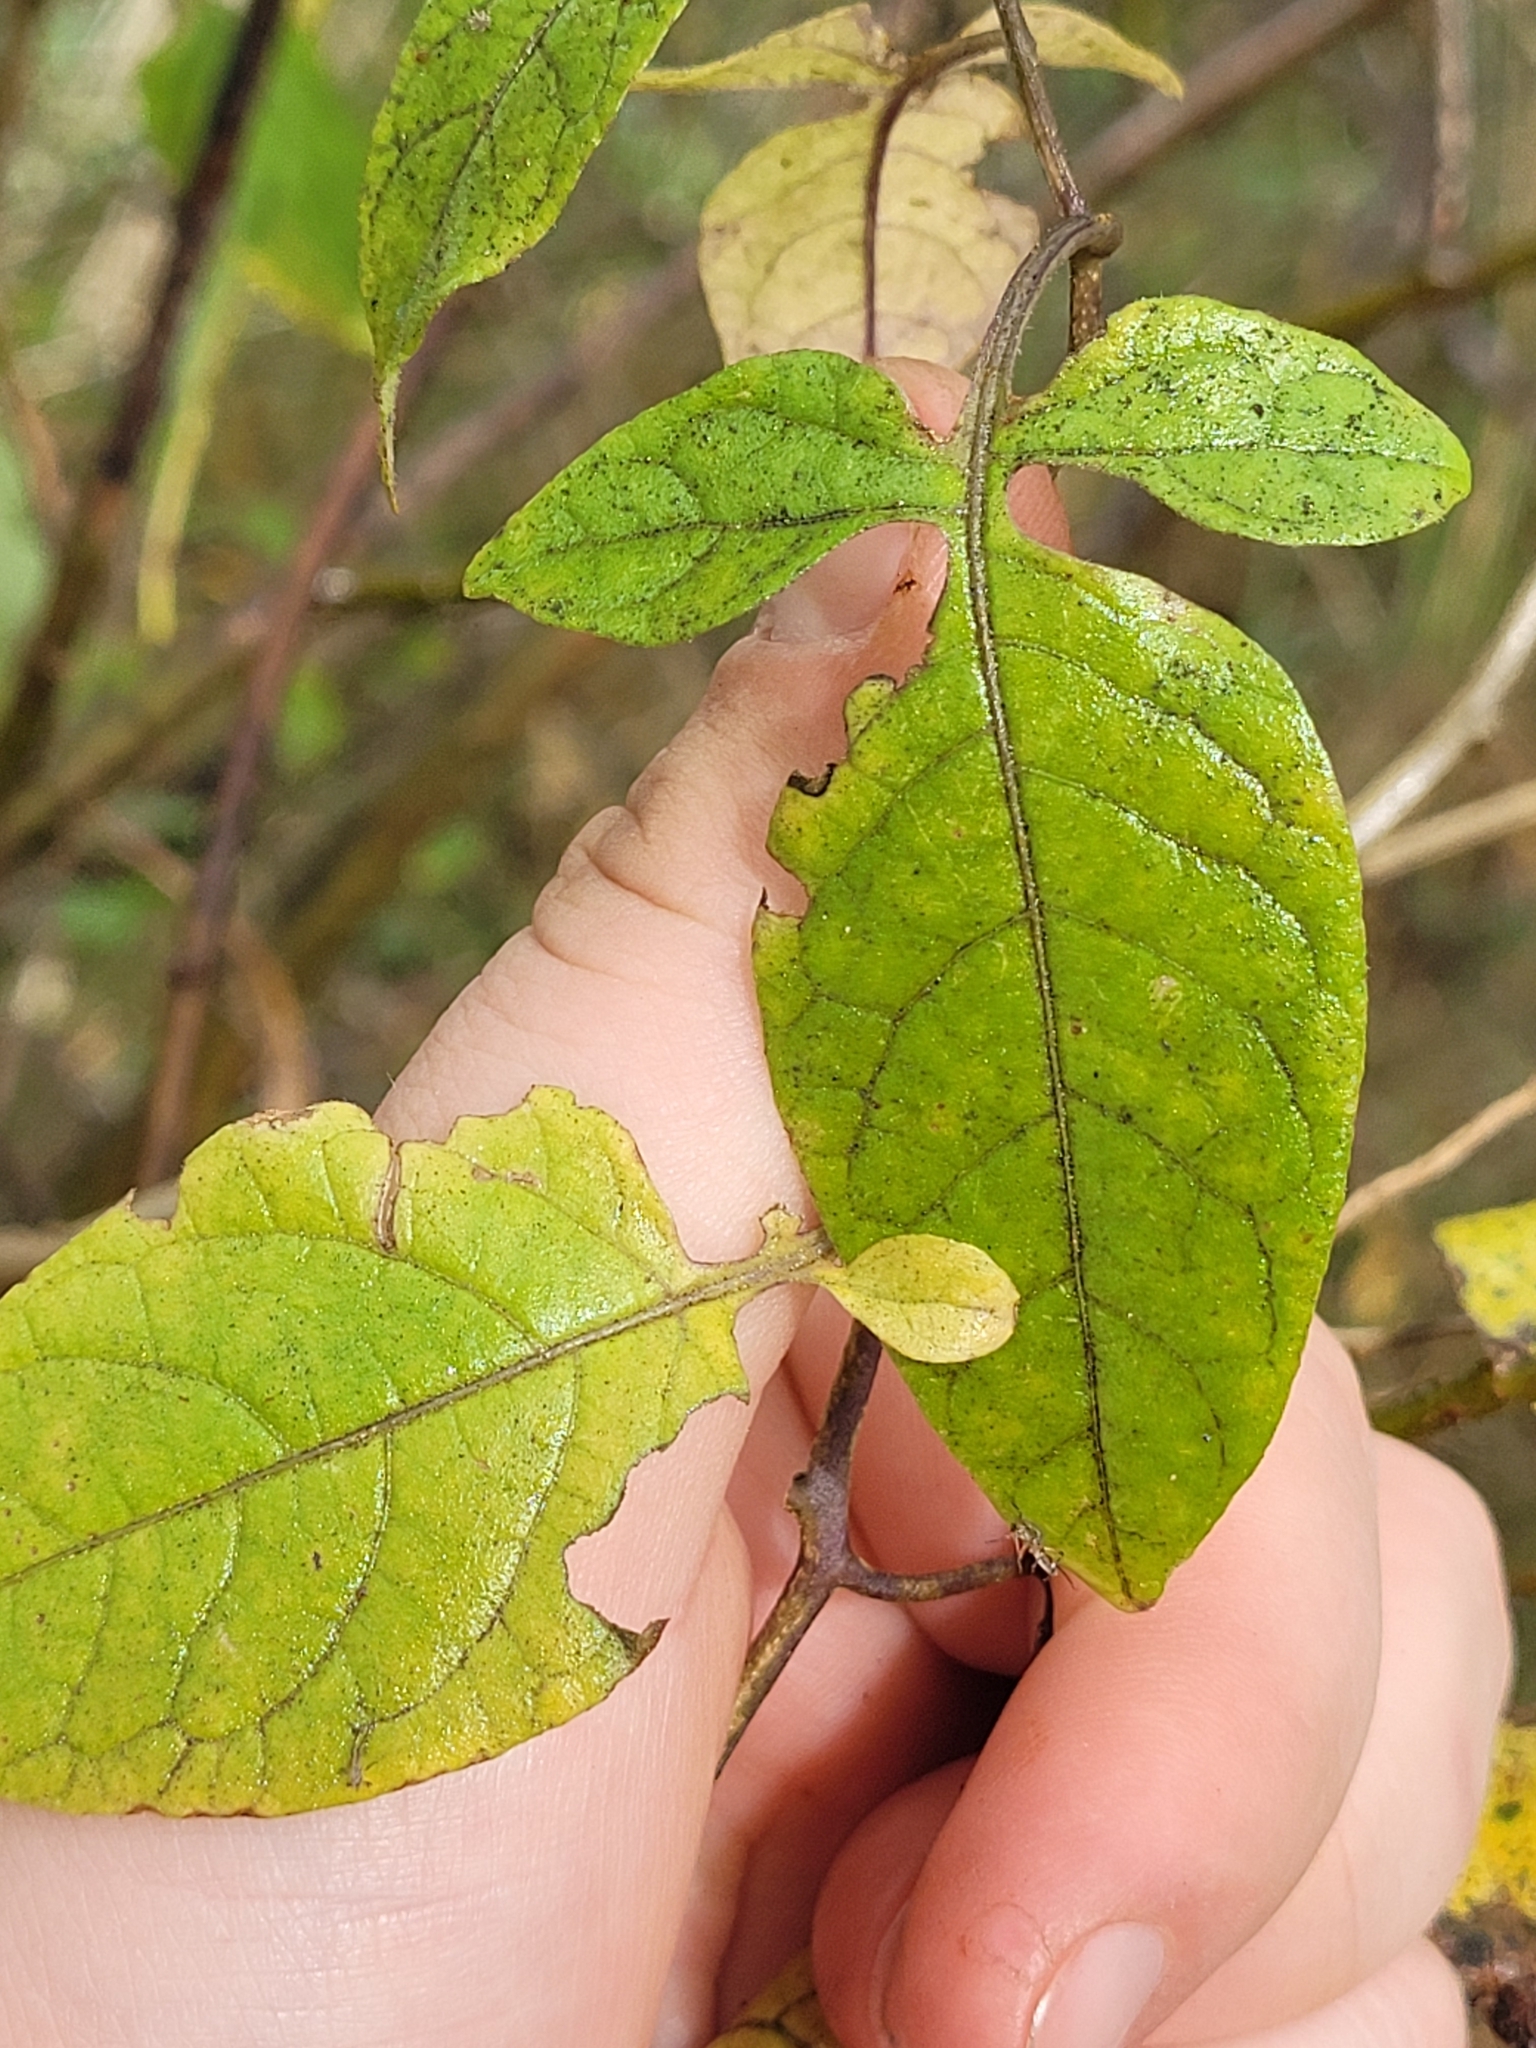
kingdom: Plantae
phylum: Tracheophyta
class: Magnoliopsida
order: Solanales
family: Solanaceae
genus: Solanum
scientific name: Solanum dulcamara
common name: Climbing nightshade
